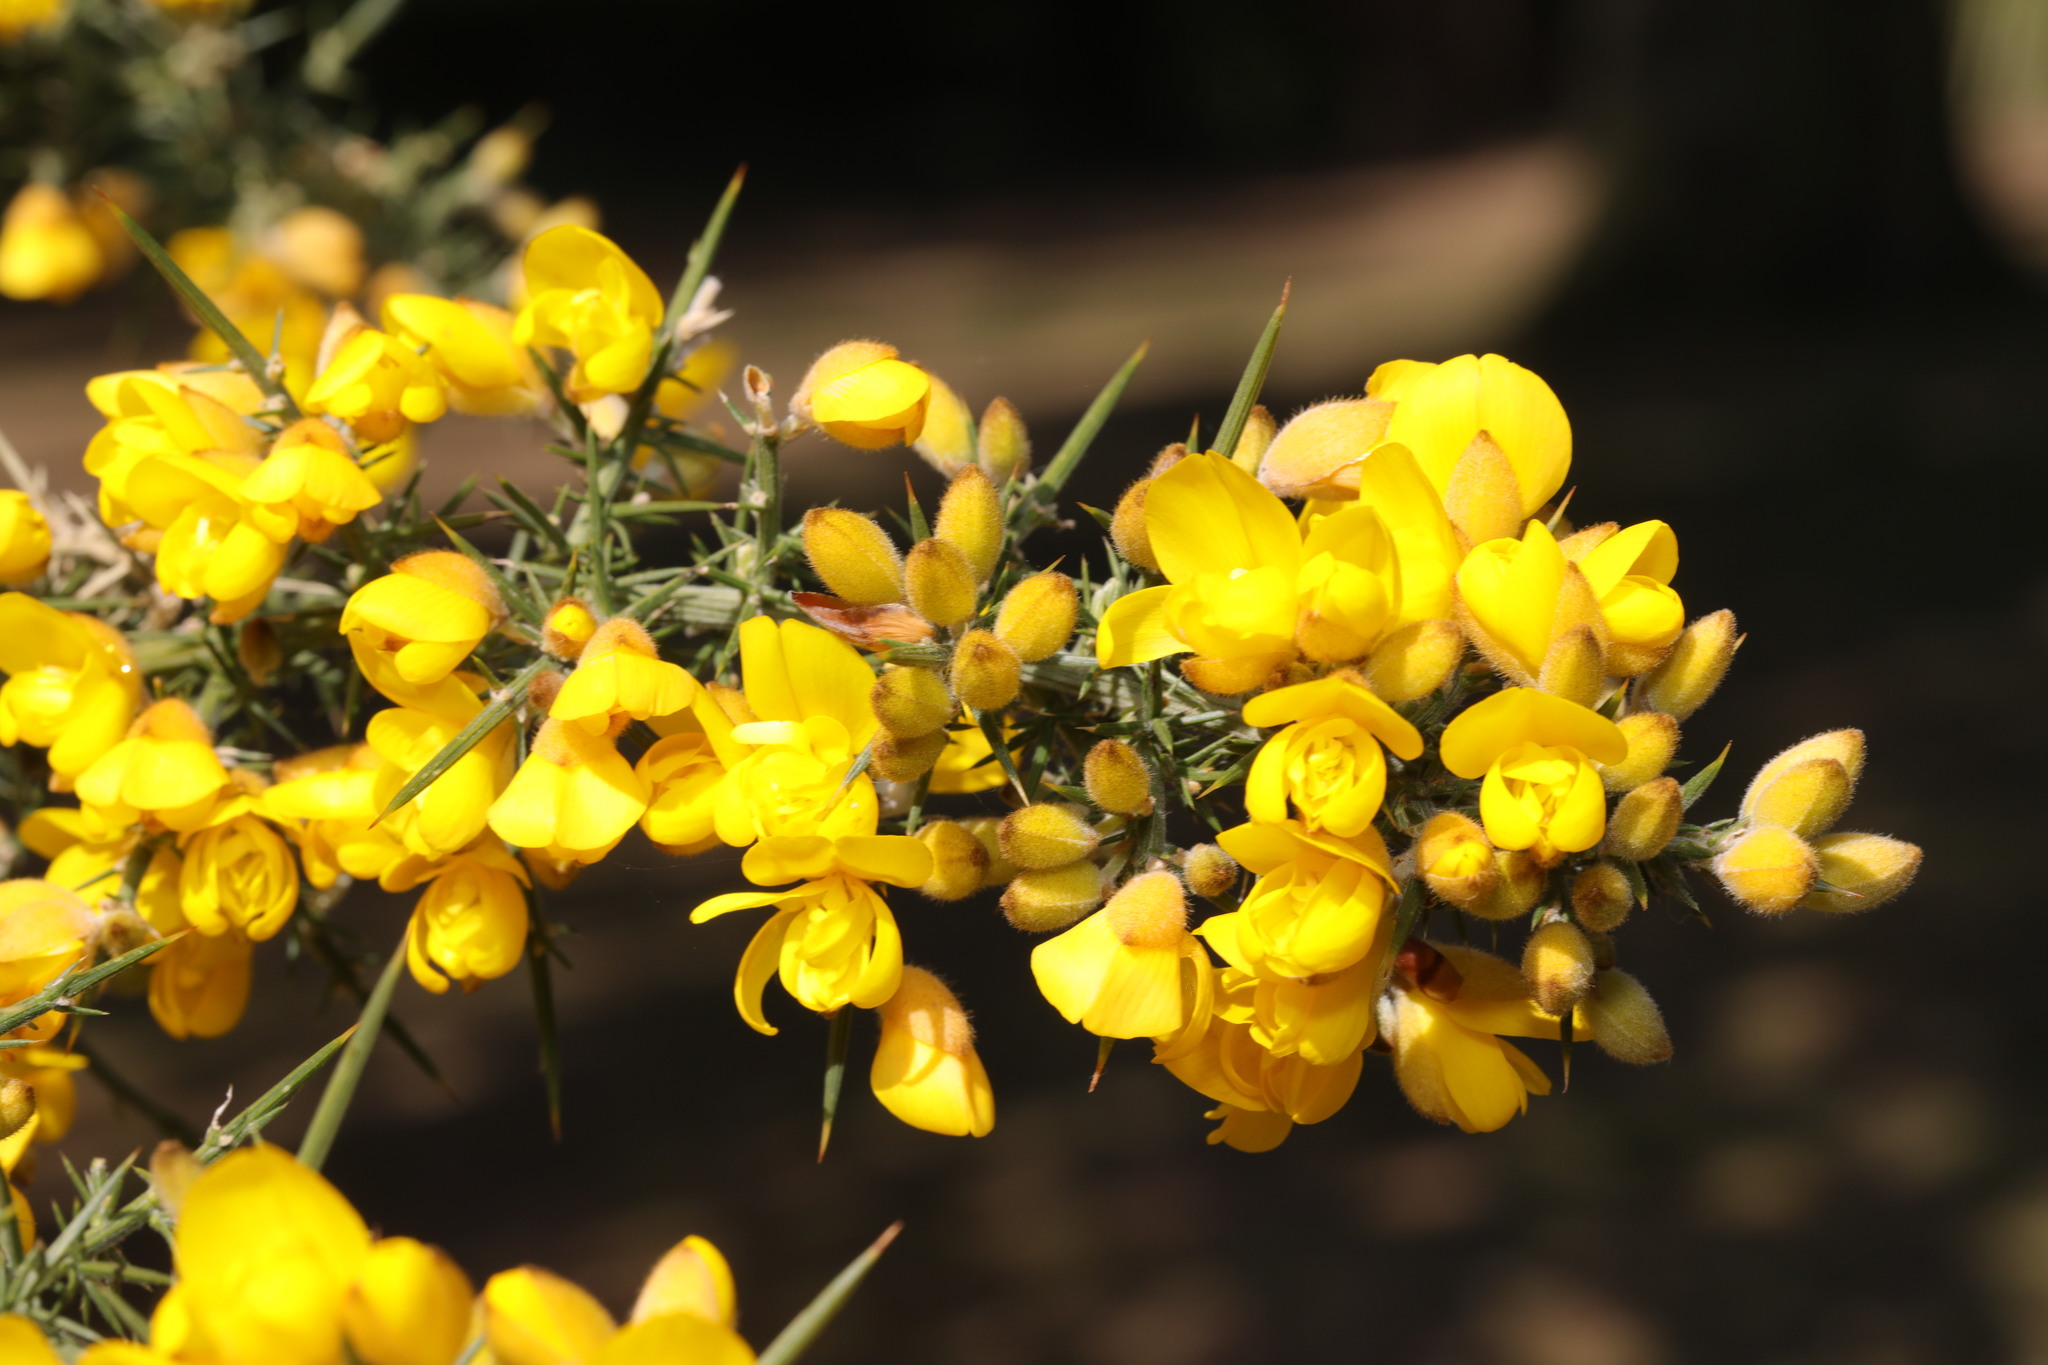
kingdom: Plantae
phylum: Tracheophyta
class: Magnoliopsida
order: Fabales
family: Fabaceae
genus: Ulex
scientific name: Ulex europaeus
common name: Common gorse
